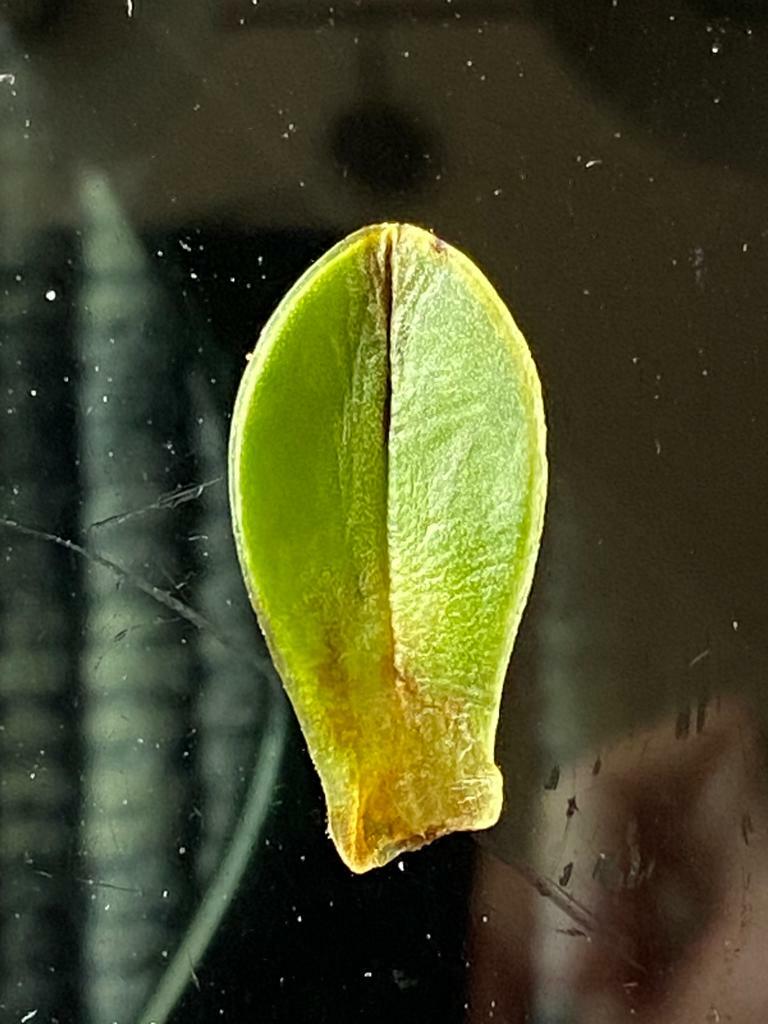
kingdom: Plantae
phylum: Tracheophyta
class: Magnoliopsida
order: Lamiales
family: Plantaginaceae
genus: Veronica
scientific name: Veronica macrocalyx
